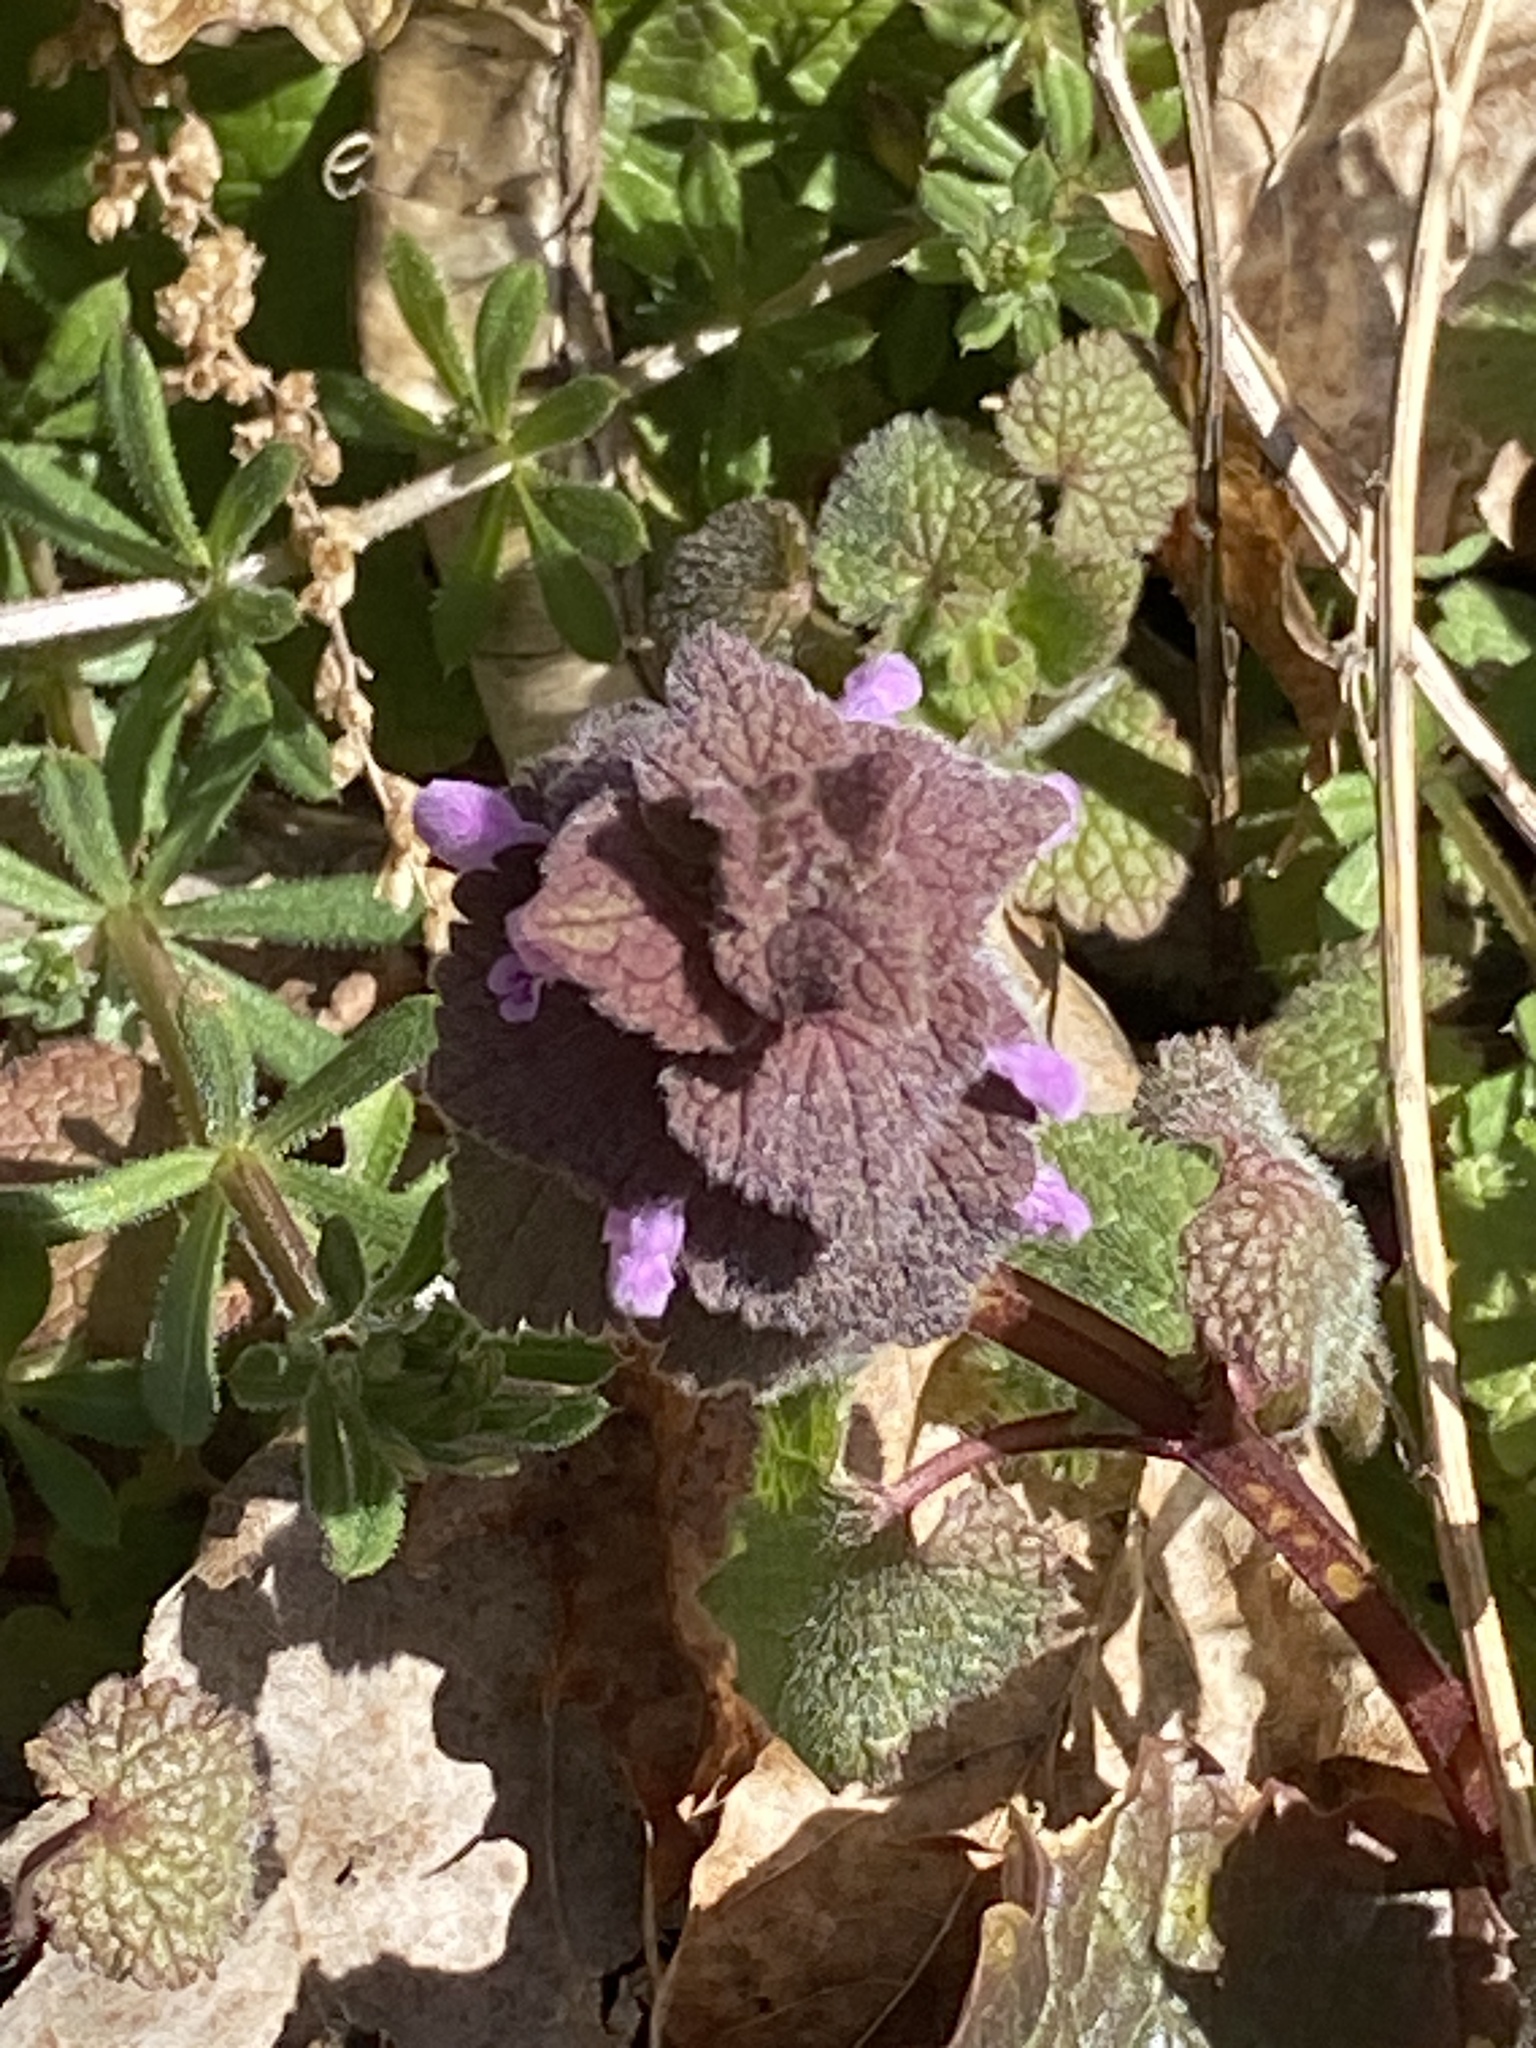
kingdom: Plantae
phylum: Tracheophyta
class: Magnoliopsida
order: Lamiales
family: Lamiaceae
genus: Lamium
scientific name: Lamium purpureum
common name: Red dead-nettle
